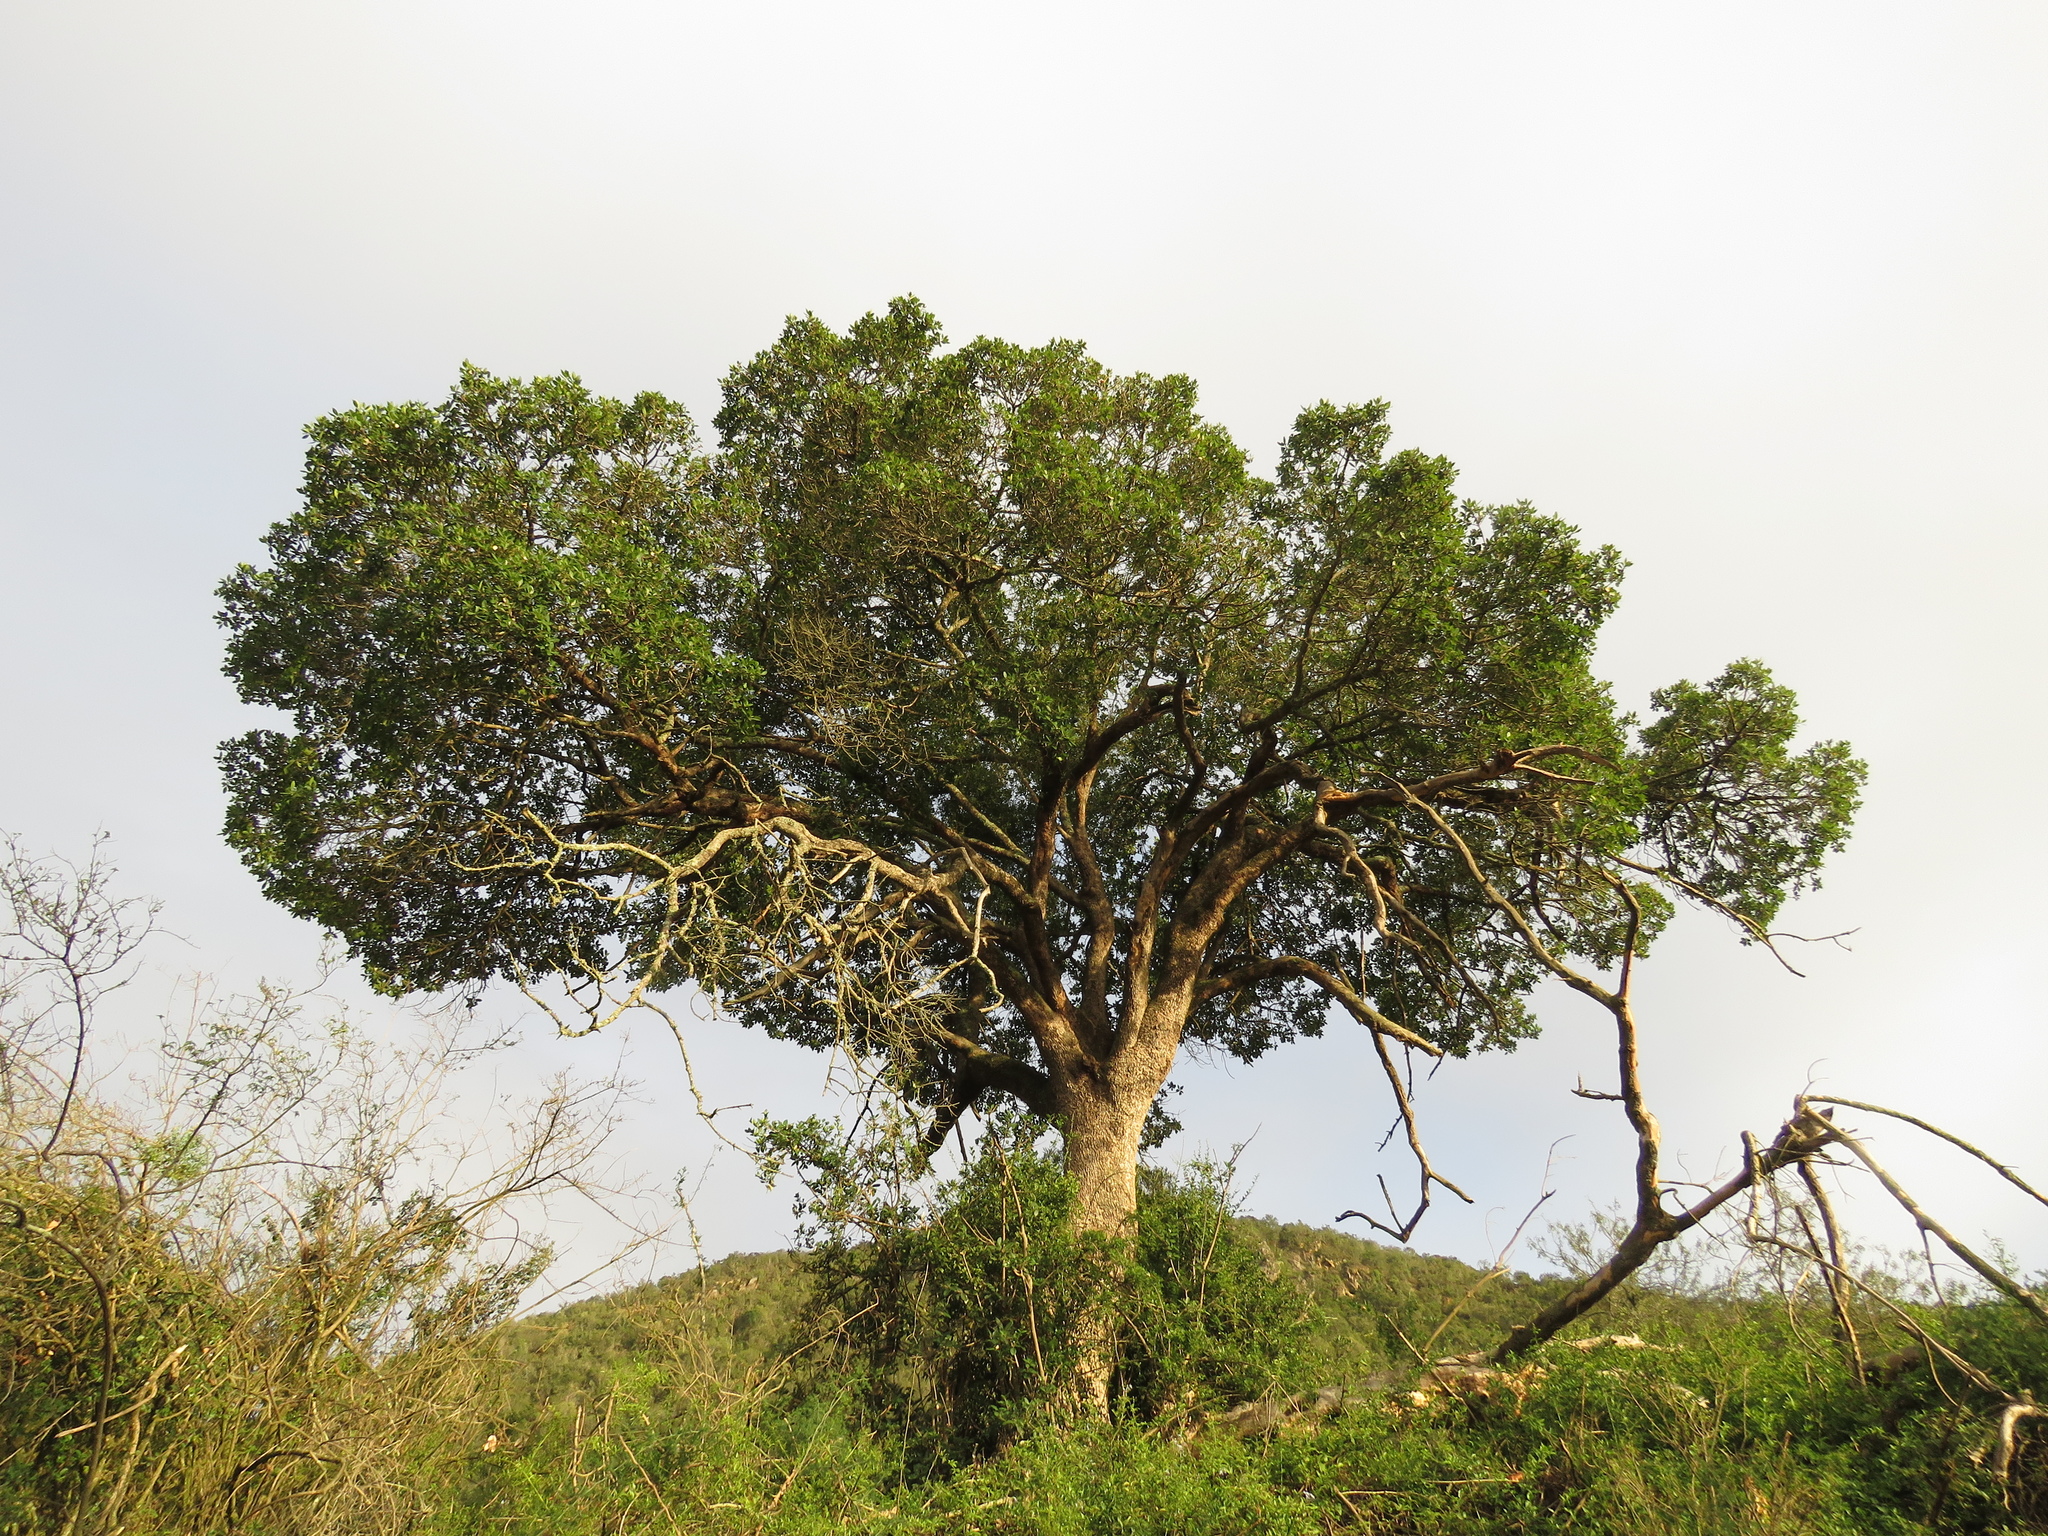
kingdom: Plantae
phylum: Tracheophyta
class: Magnoliopsida
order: Ericales
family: Sapotaceae
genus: Sideroxylon
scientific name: Sideroxylon inerme
